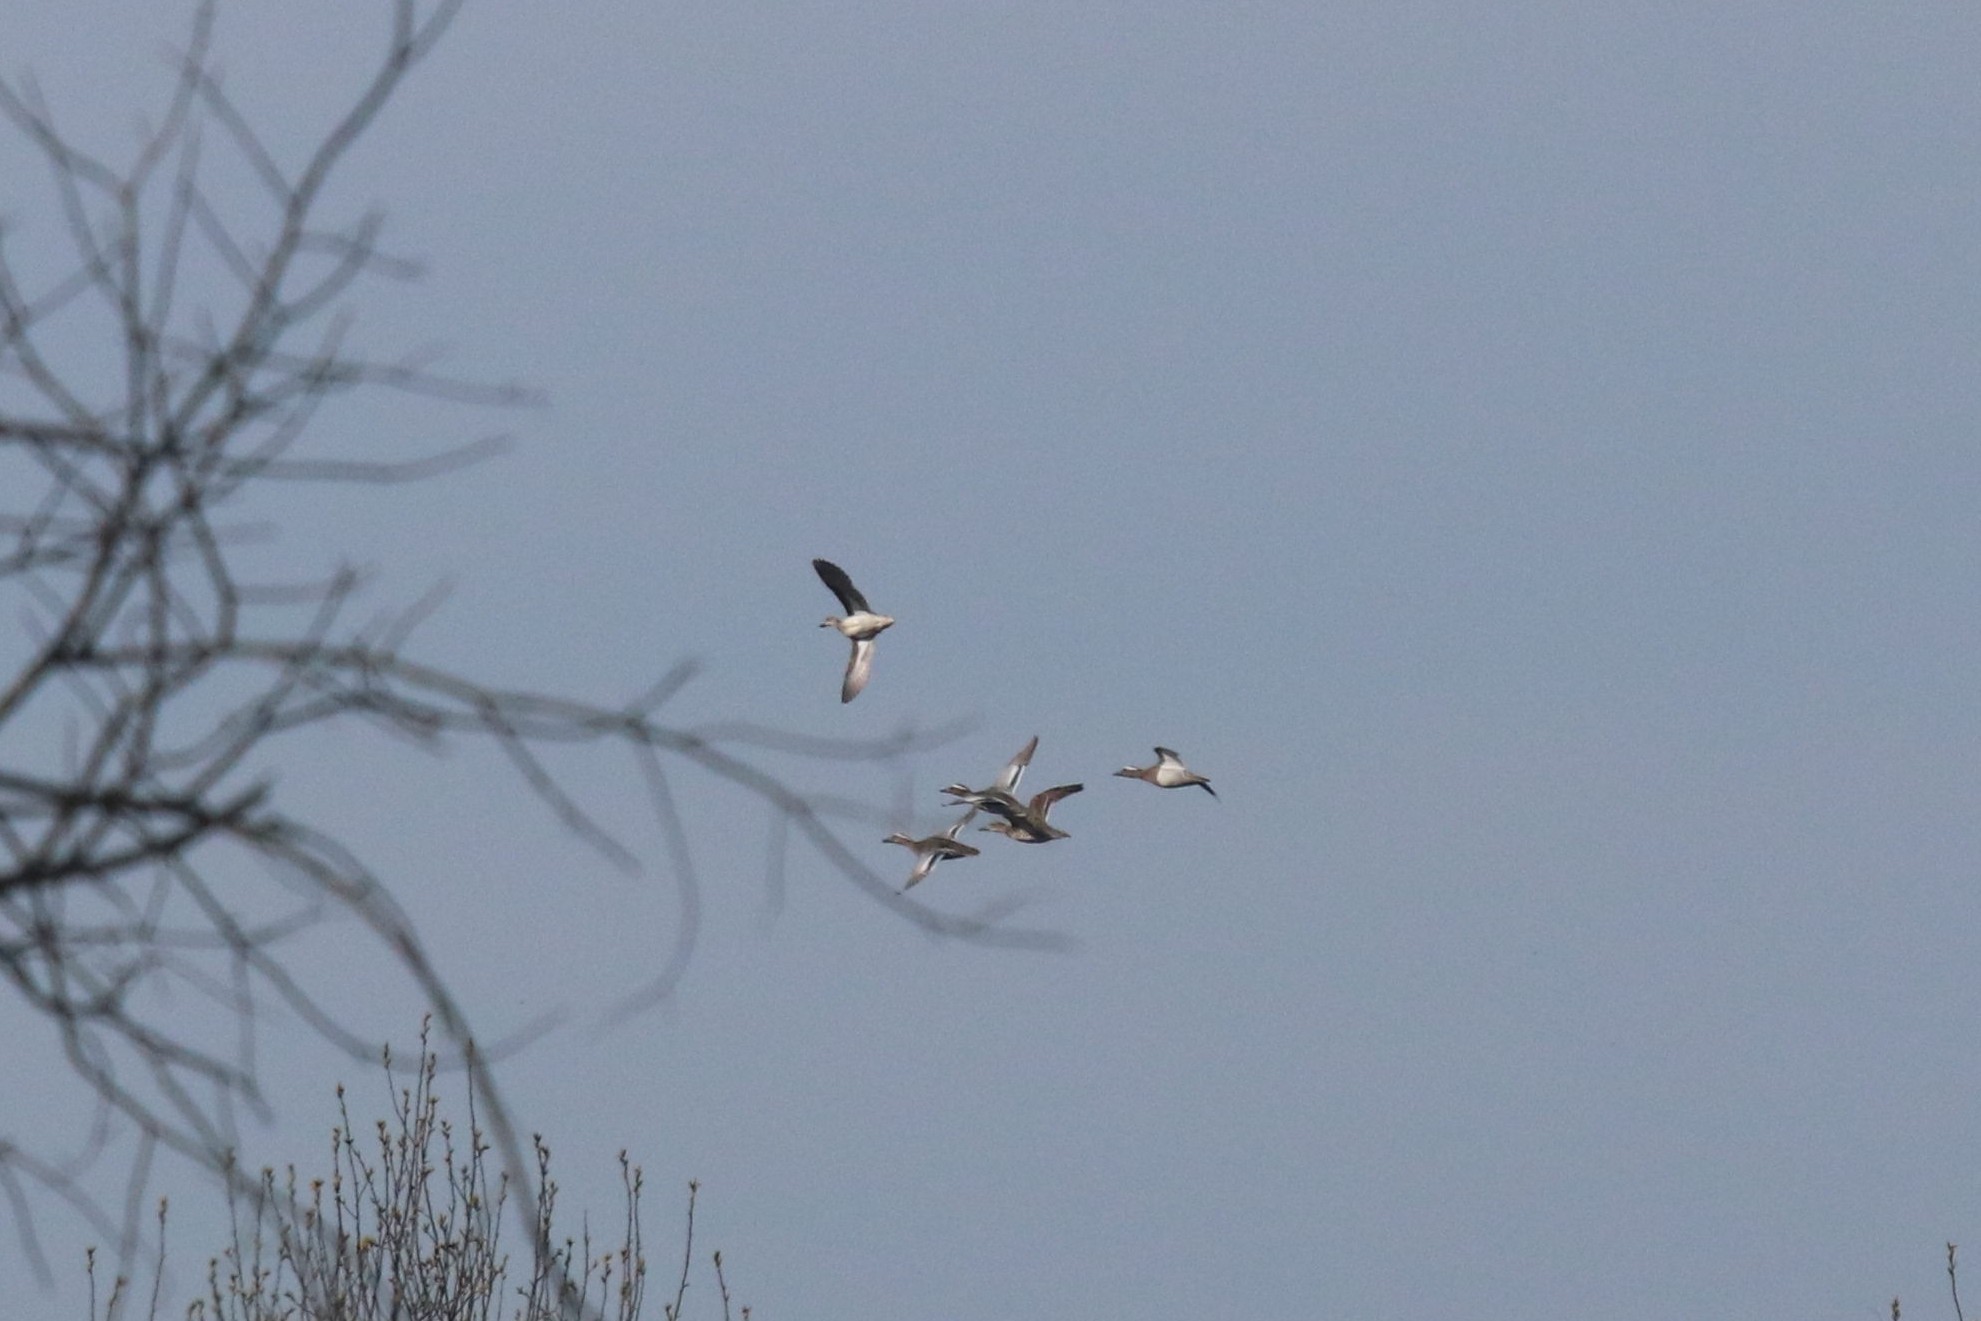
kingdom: Animalia
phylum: Chordata
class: Aves
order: Anseriformes
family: Anatidae
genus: Spatula
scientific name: Spatula querquedula
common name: Garganey
